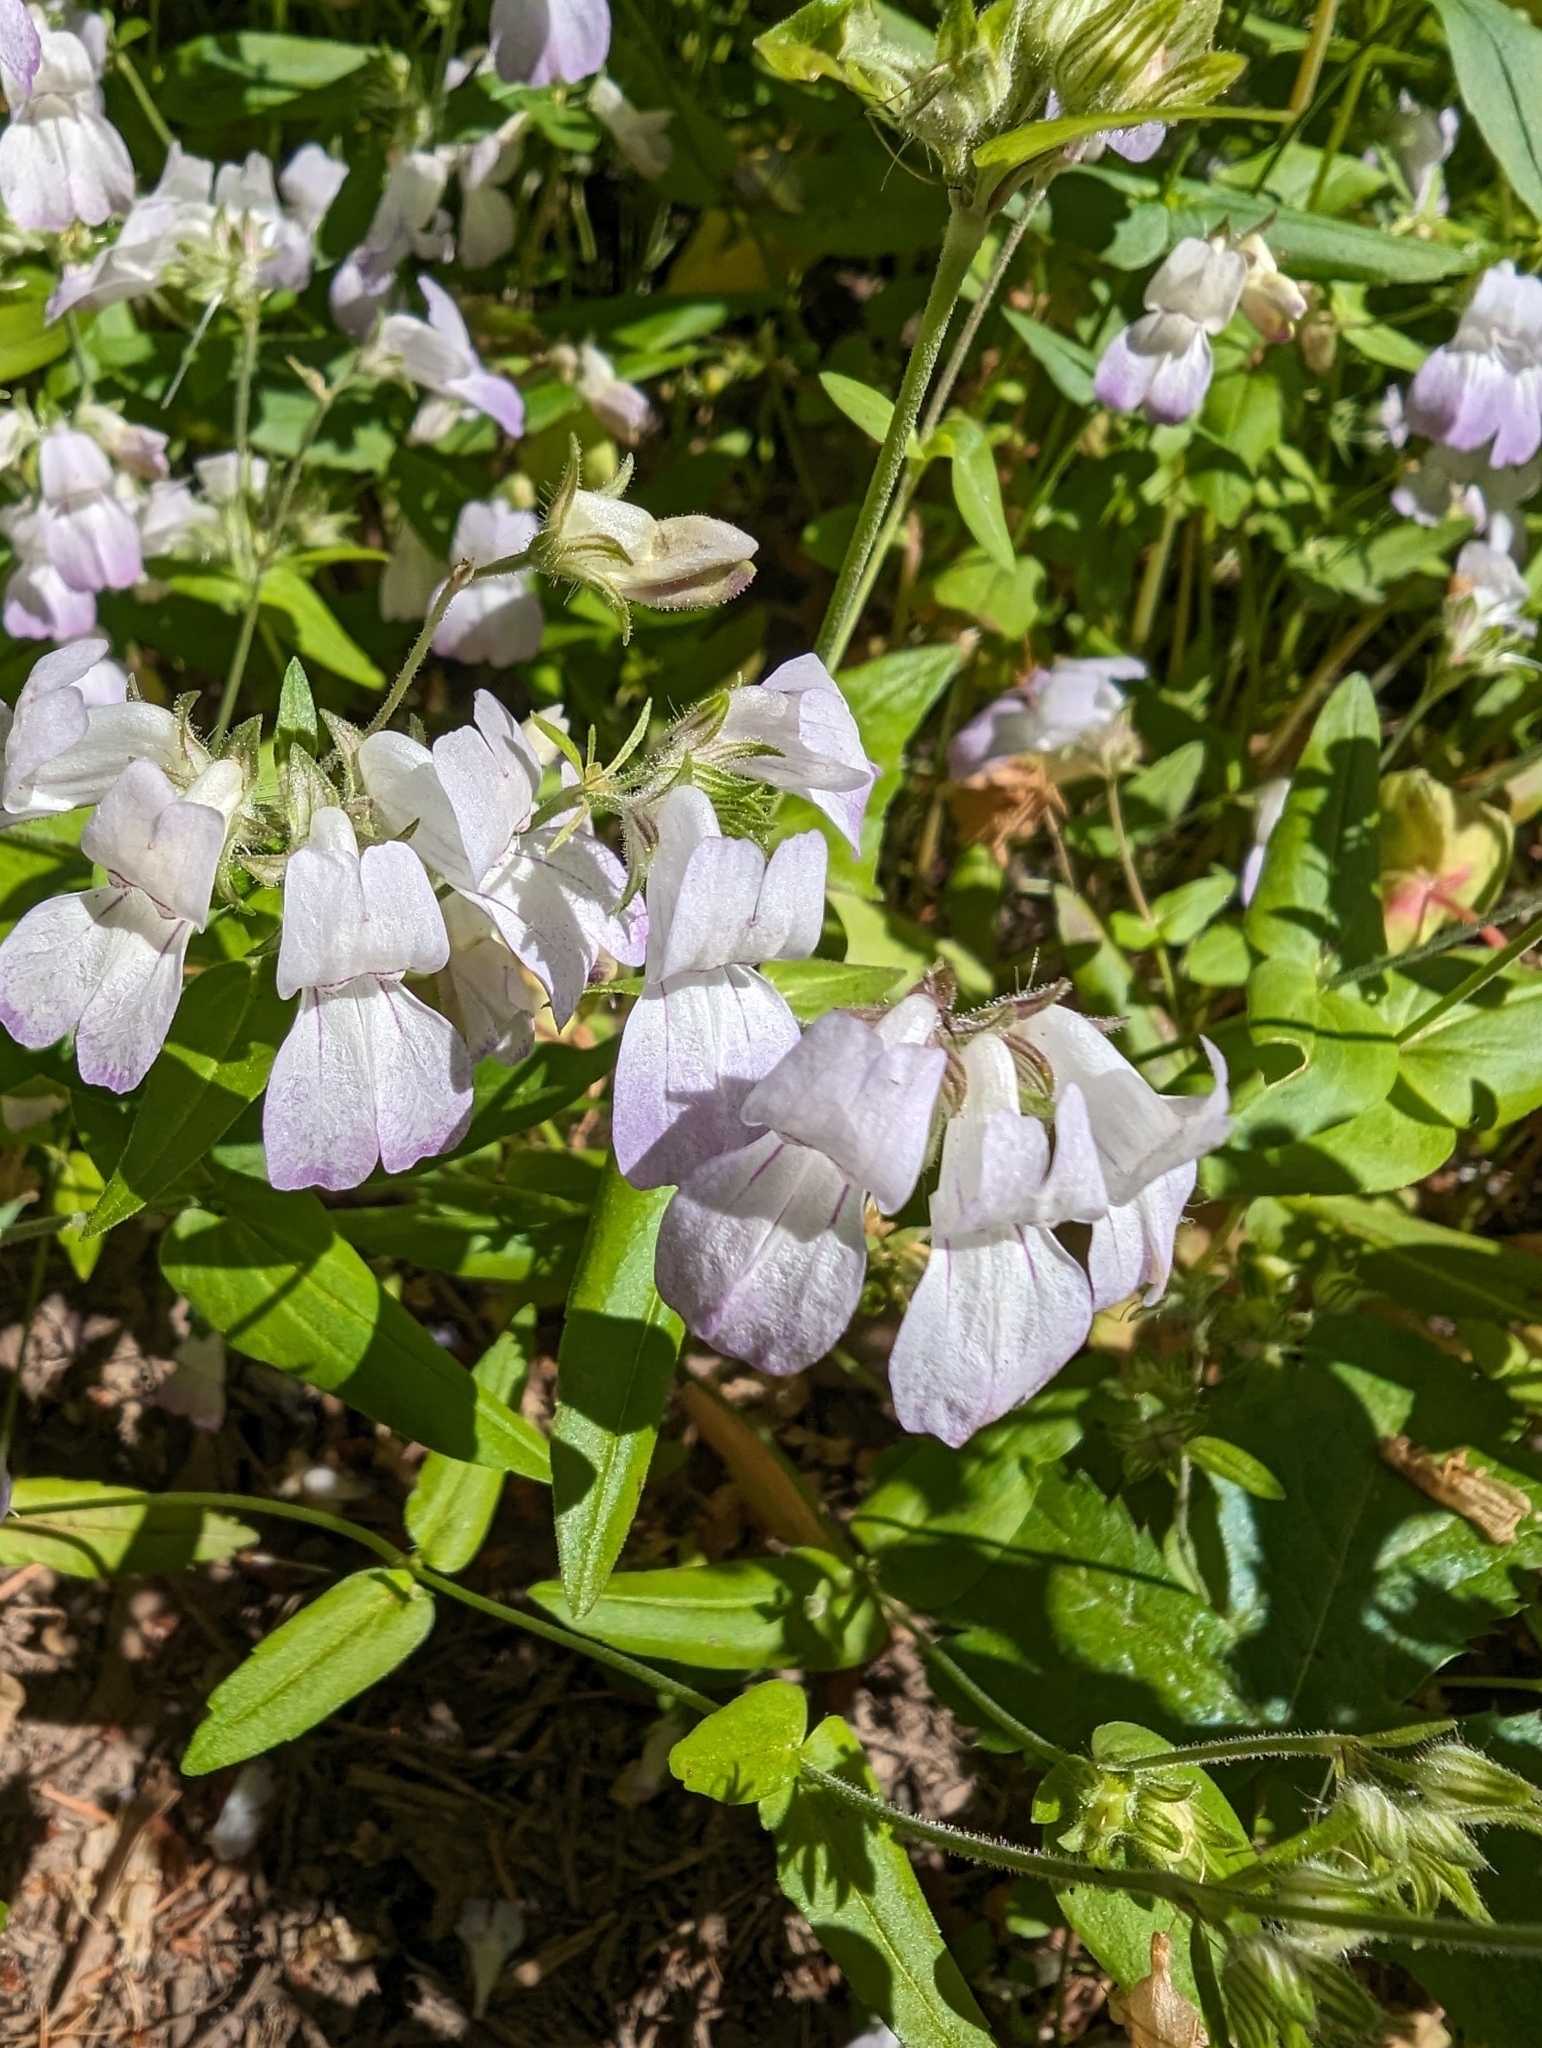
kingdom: Plantae
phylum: Tracheophyta
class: Magnoliopsida
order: Lamiales
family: Plantaginaceae
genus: Collinsia
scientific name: Collinsia heterophylla
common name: Chinese-houses
